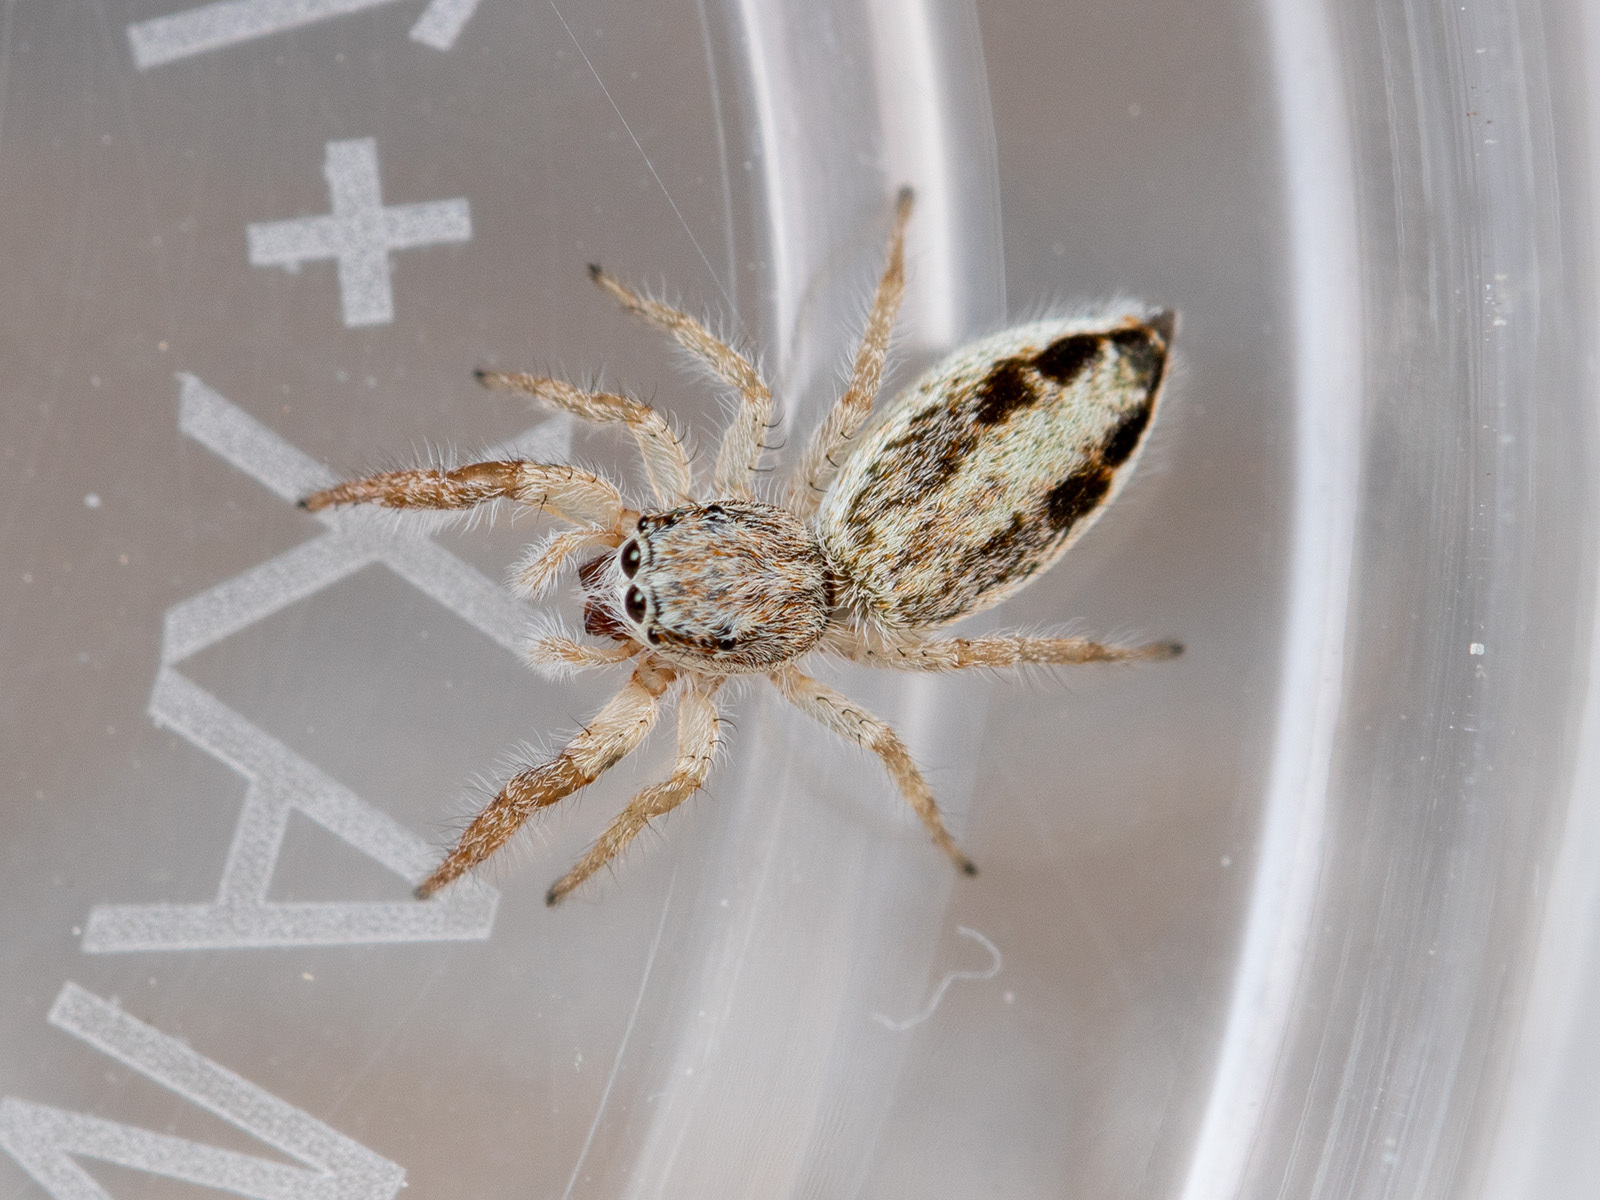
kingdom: Animalia
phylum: Arthropoda
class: Arachnida
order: Araneae
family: Salticidae
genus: Pseudicius
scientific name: Pseudicius courtauldi
